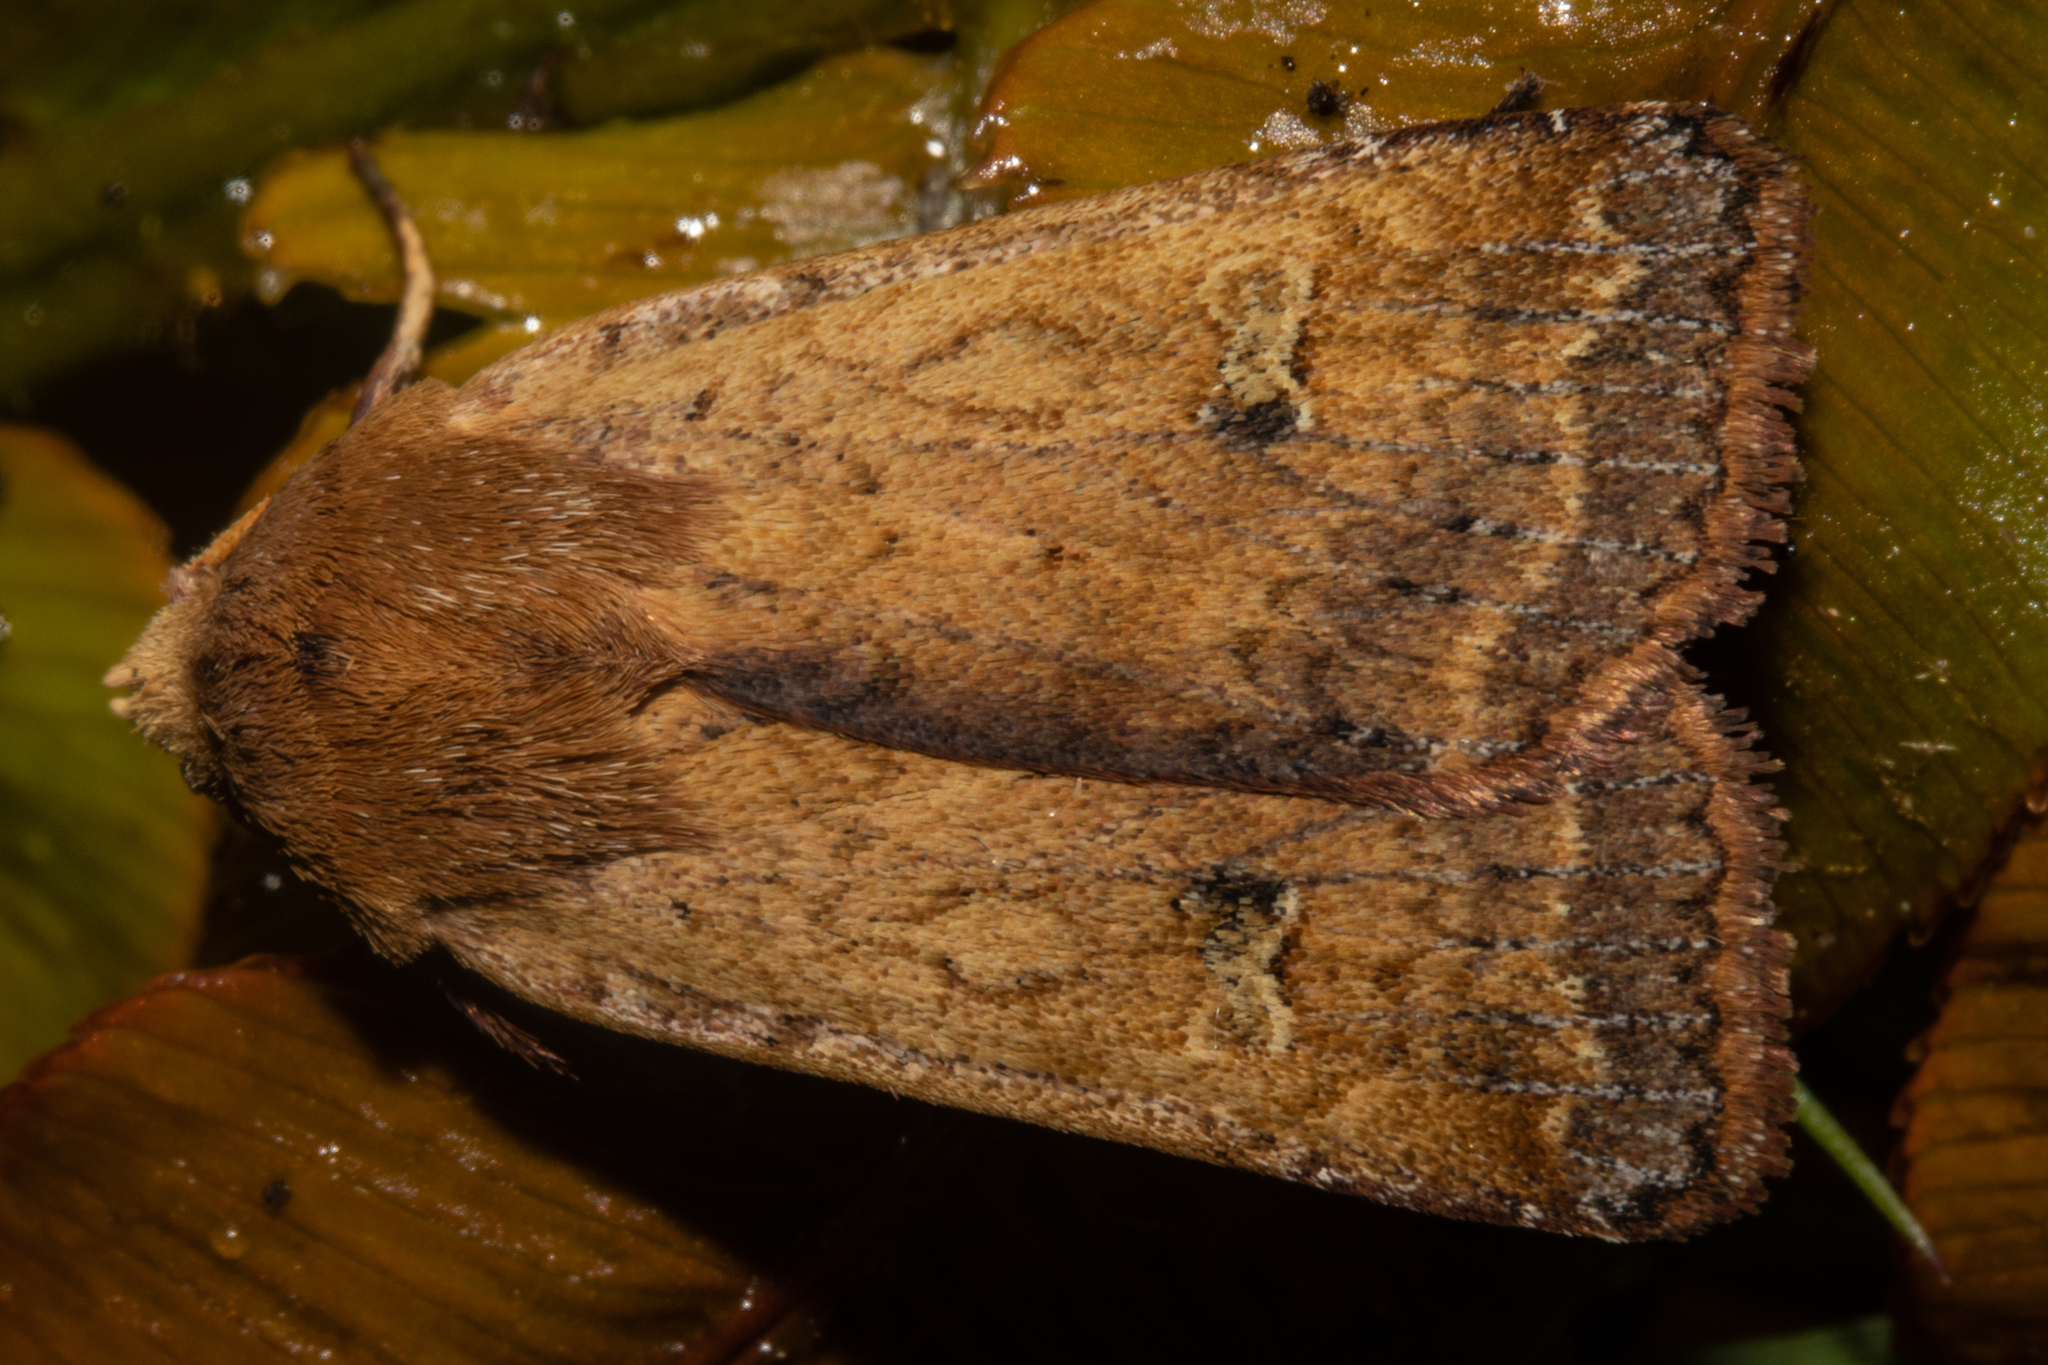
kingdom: Animalia
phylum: Arthropoda
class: Insecta
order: Lepidoptera
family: Noctuidae
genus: Diarsia
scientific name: Diarsia intermixta
